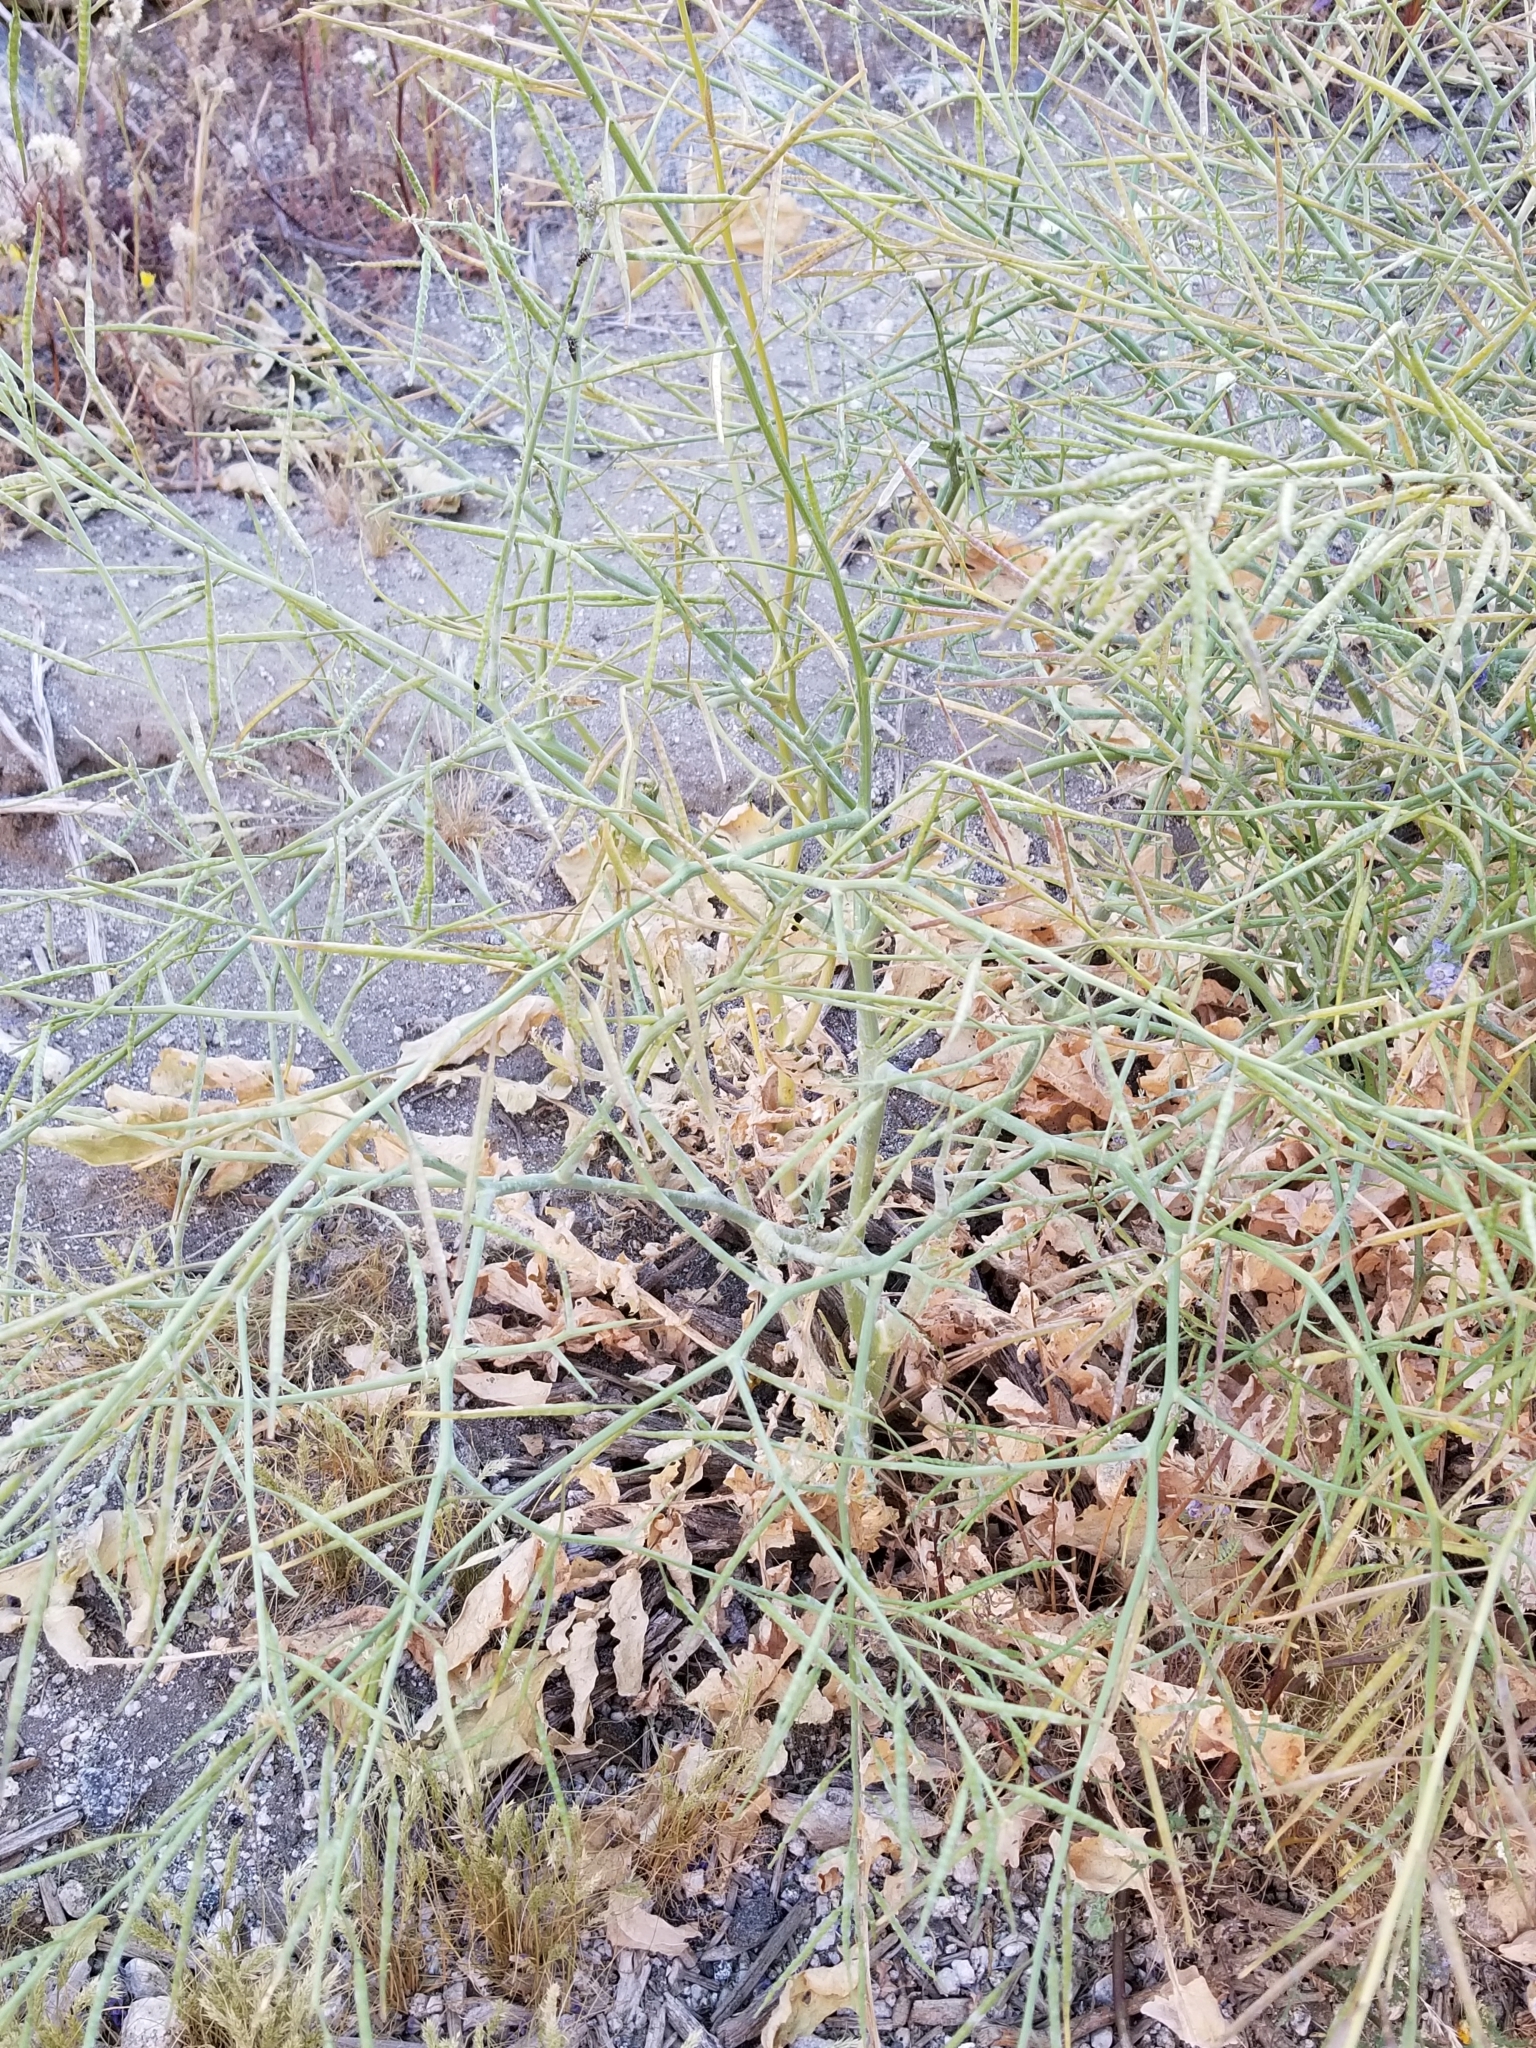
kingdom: Plantae
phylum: Tracheophyta
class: Magnoliopsida
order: Brassicales
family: Brassicaceae
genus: Brassica
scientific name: Brassica tournefortii
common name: Pale cabbage
